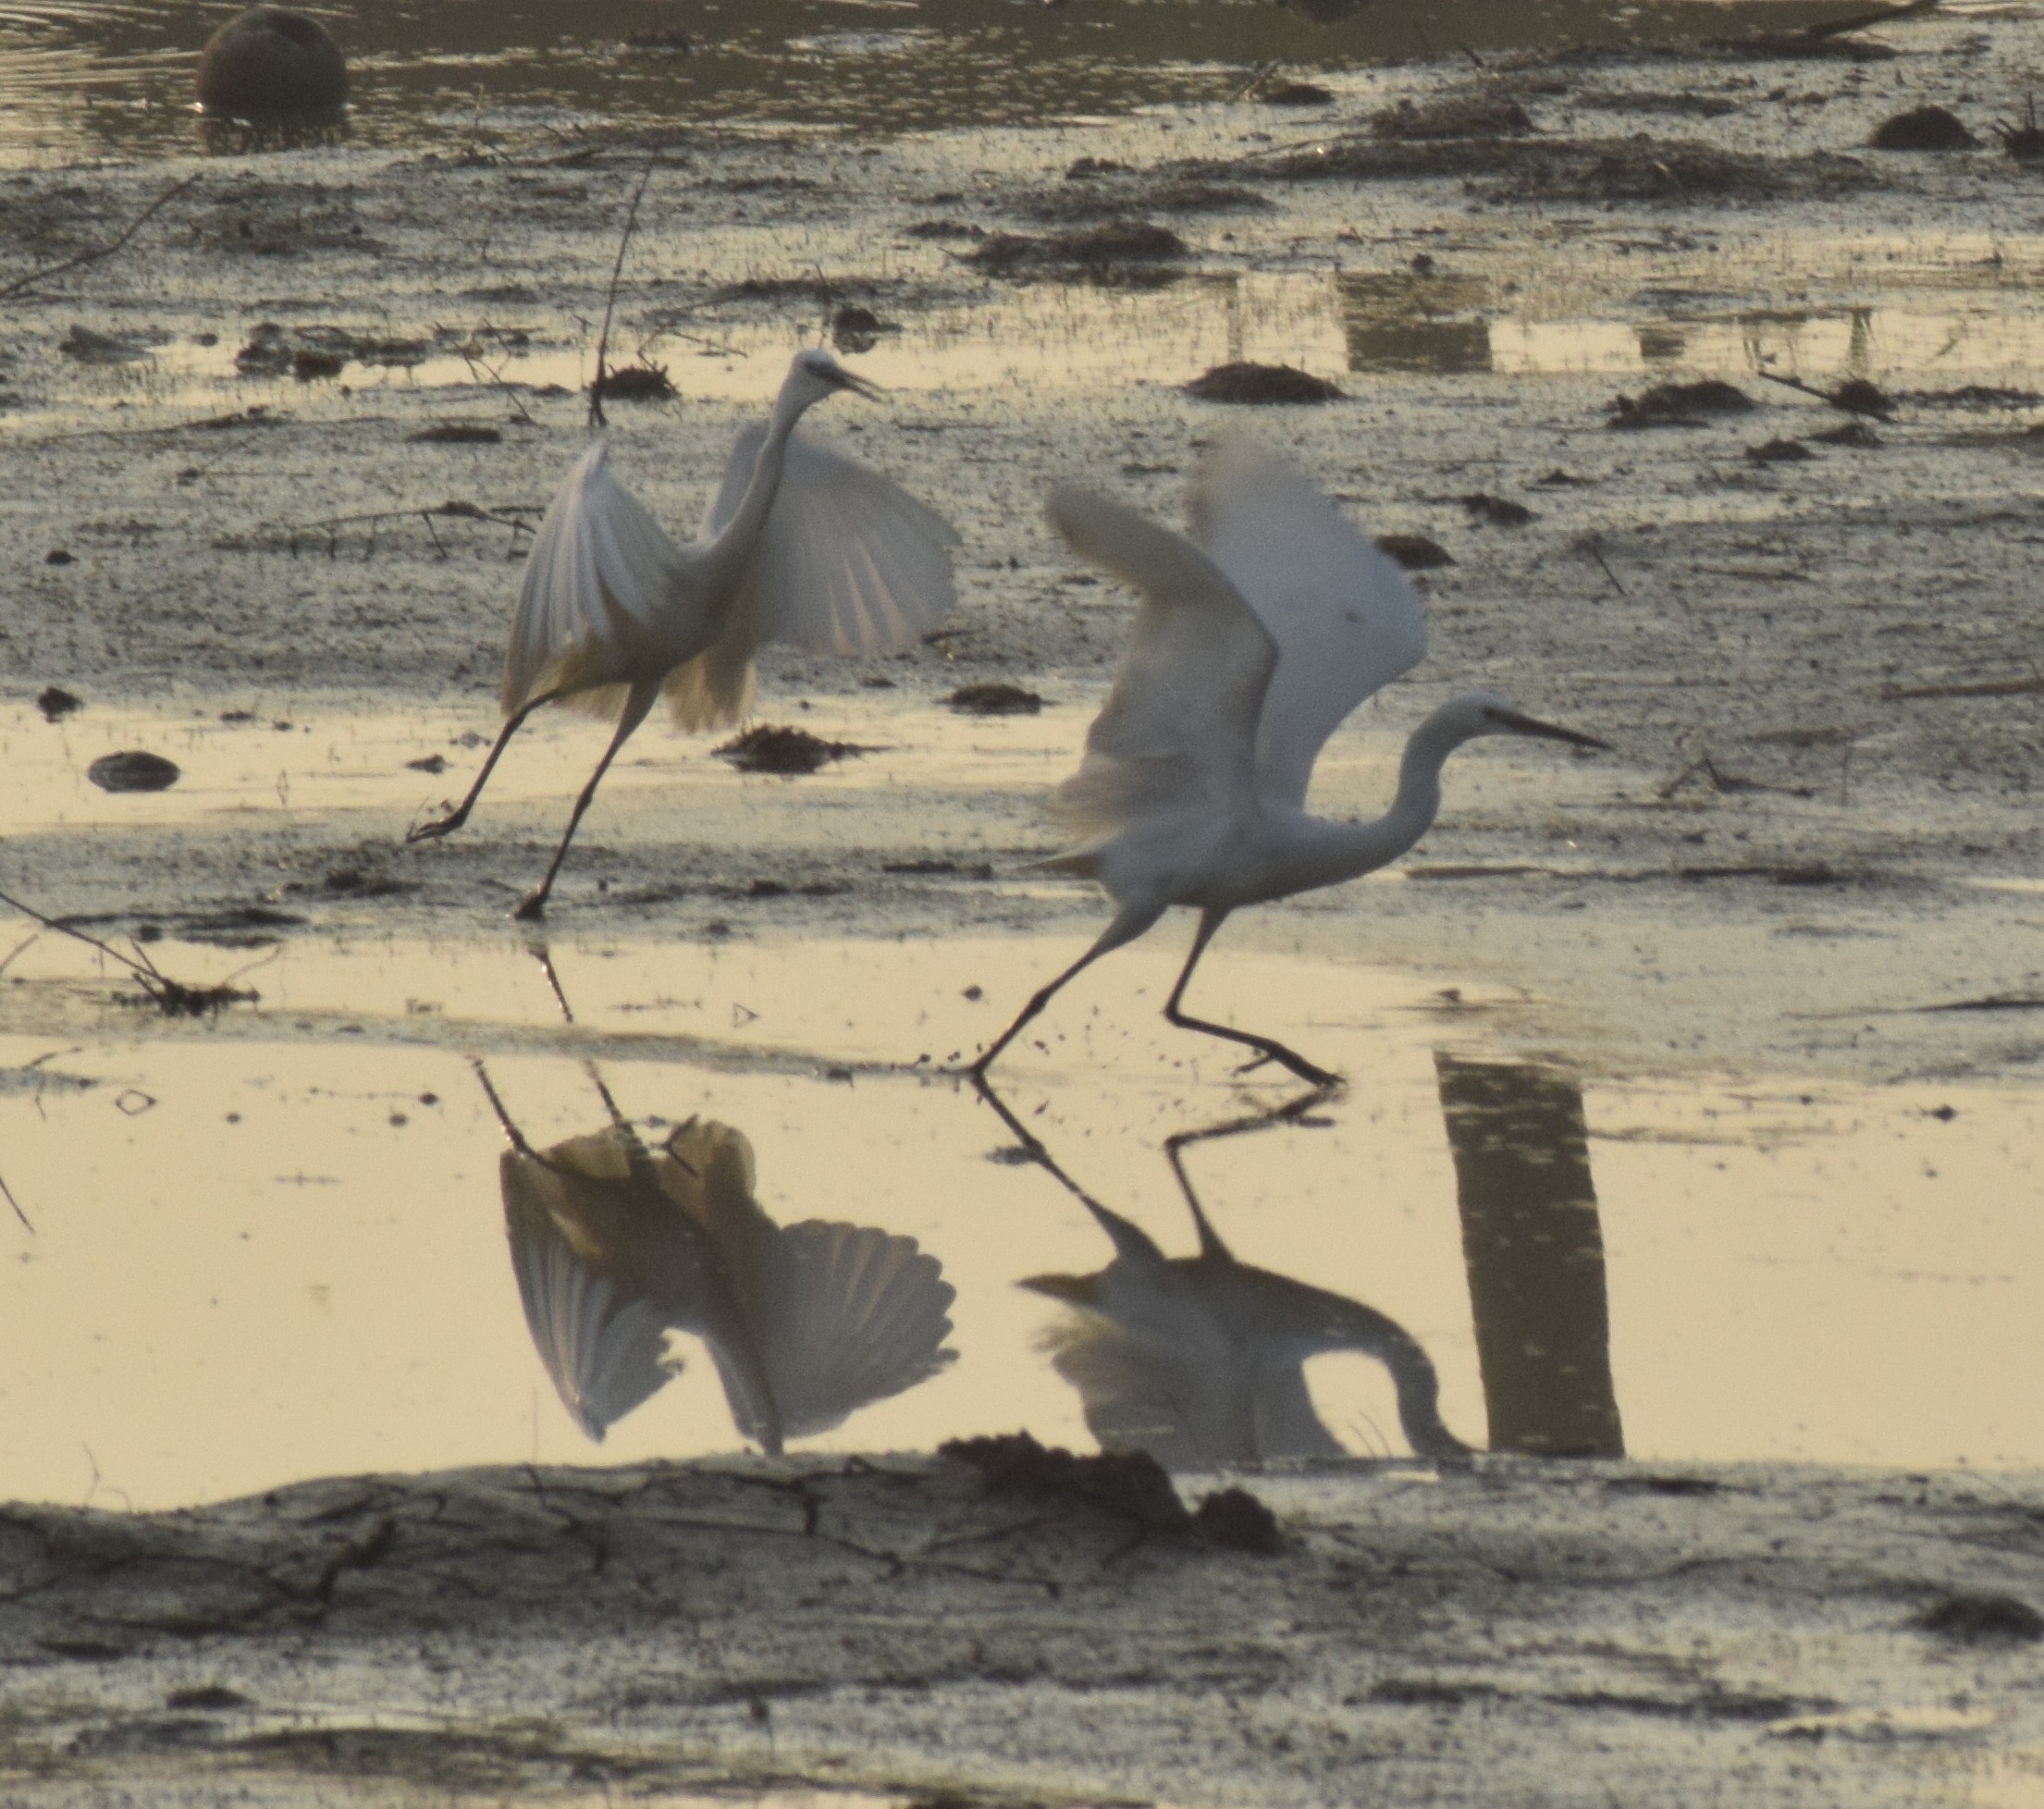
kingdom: Animalia
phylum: Chordata
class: Aves
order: Pelecaniformes
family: Ardeidae
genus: Egretta
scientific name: Egretta garzetta
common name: Little egret
